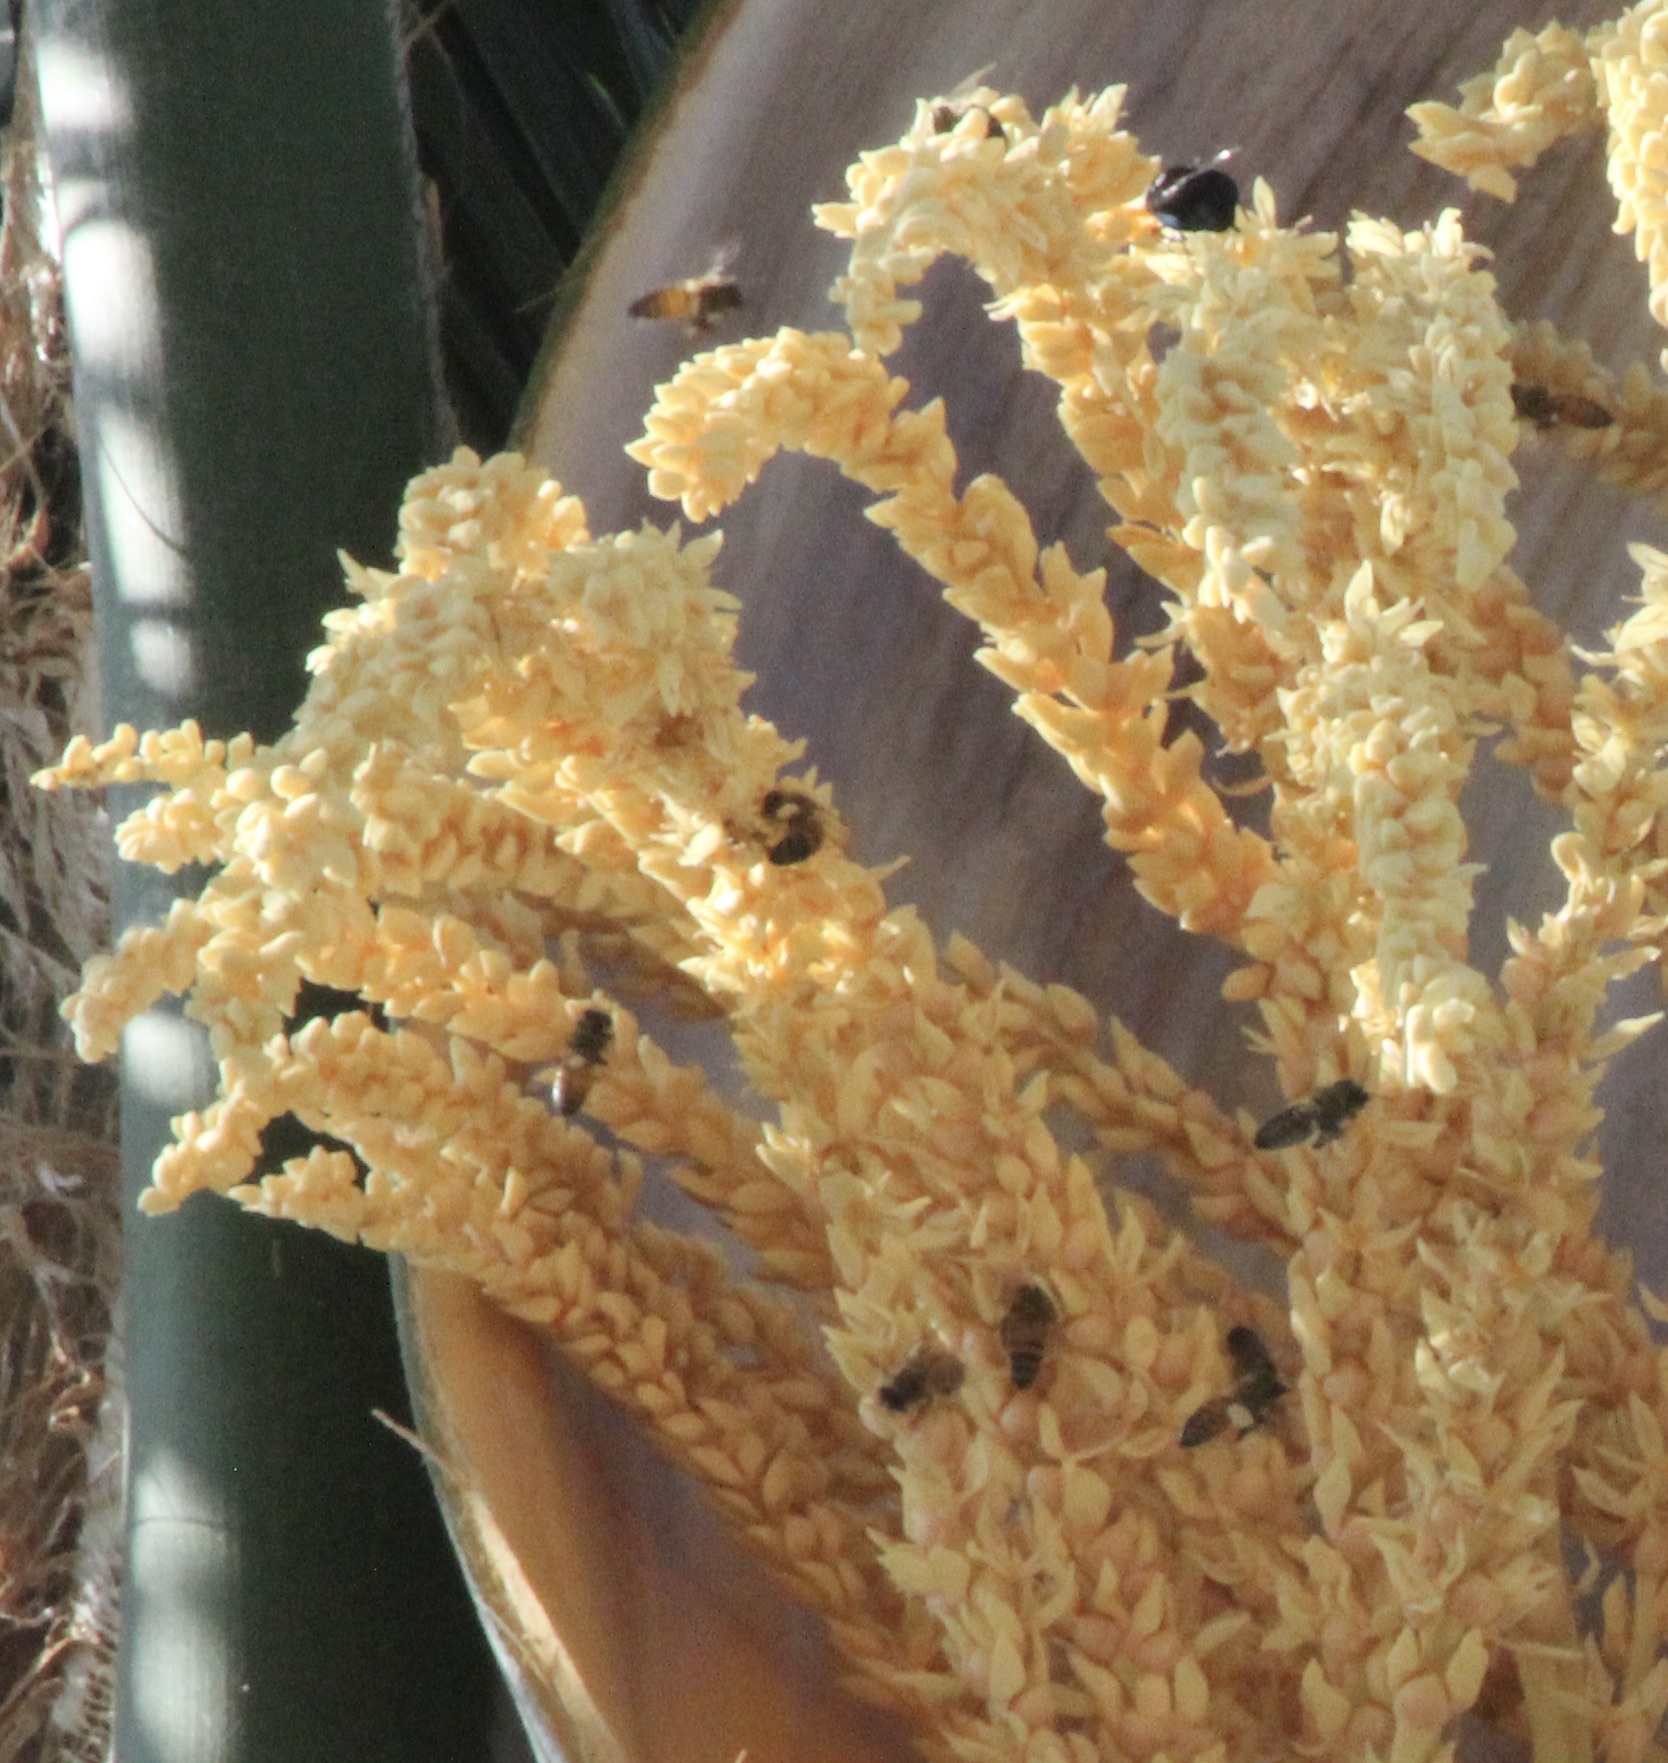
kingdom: Animalia
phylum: Arthropoda
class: Insecta
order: Hymenoptera
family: Apidae
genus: Apis
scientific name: Apis mellifera
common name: Honey bee
